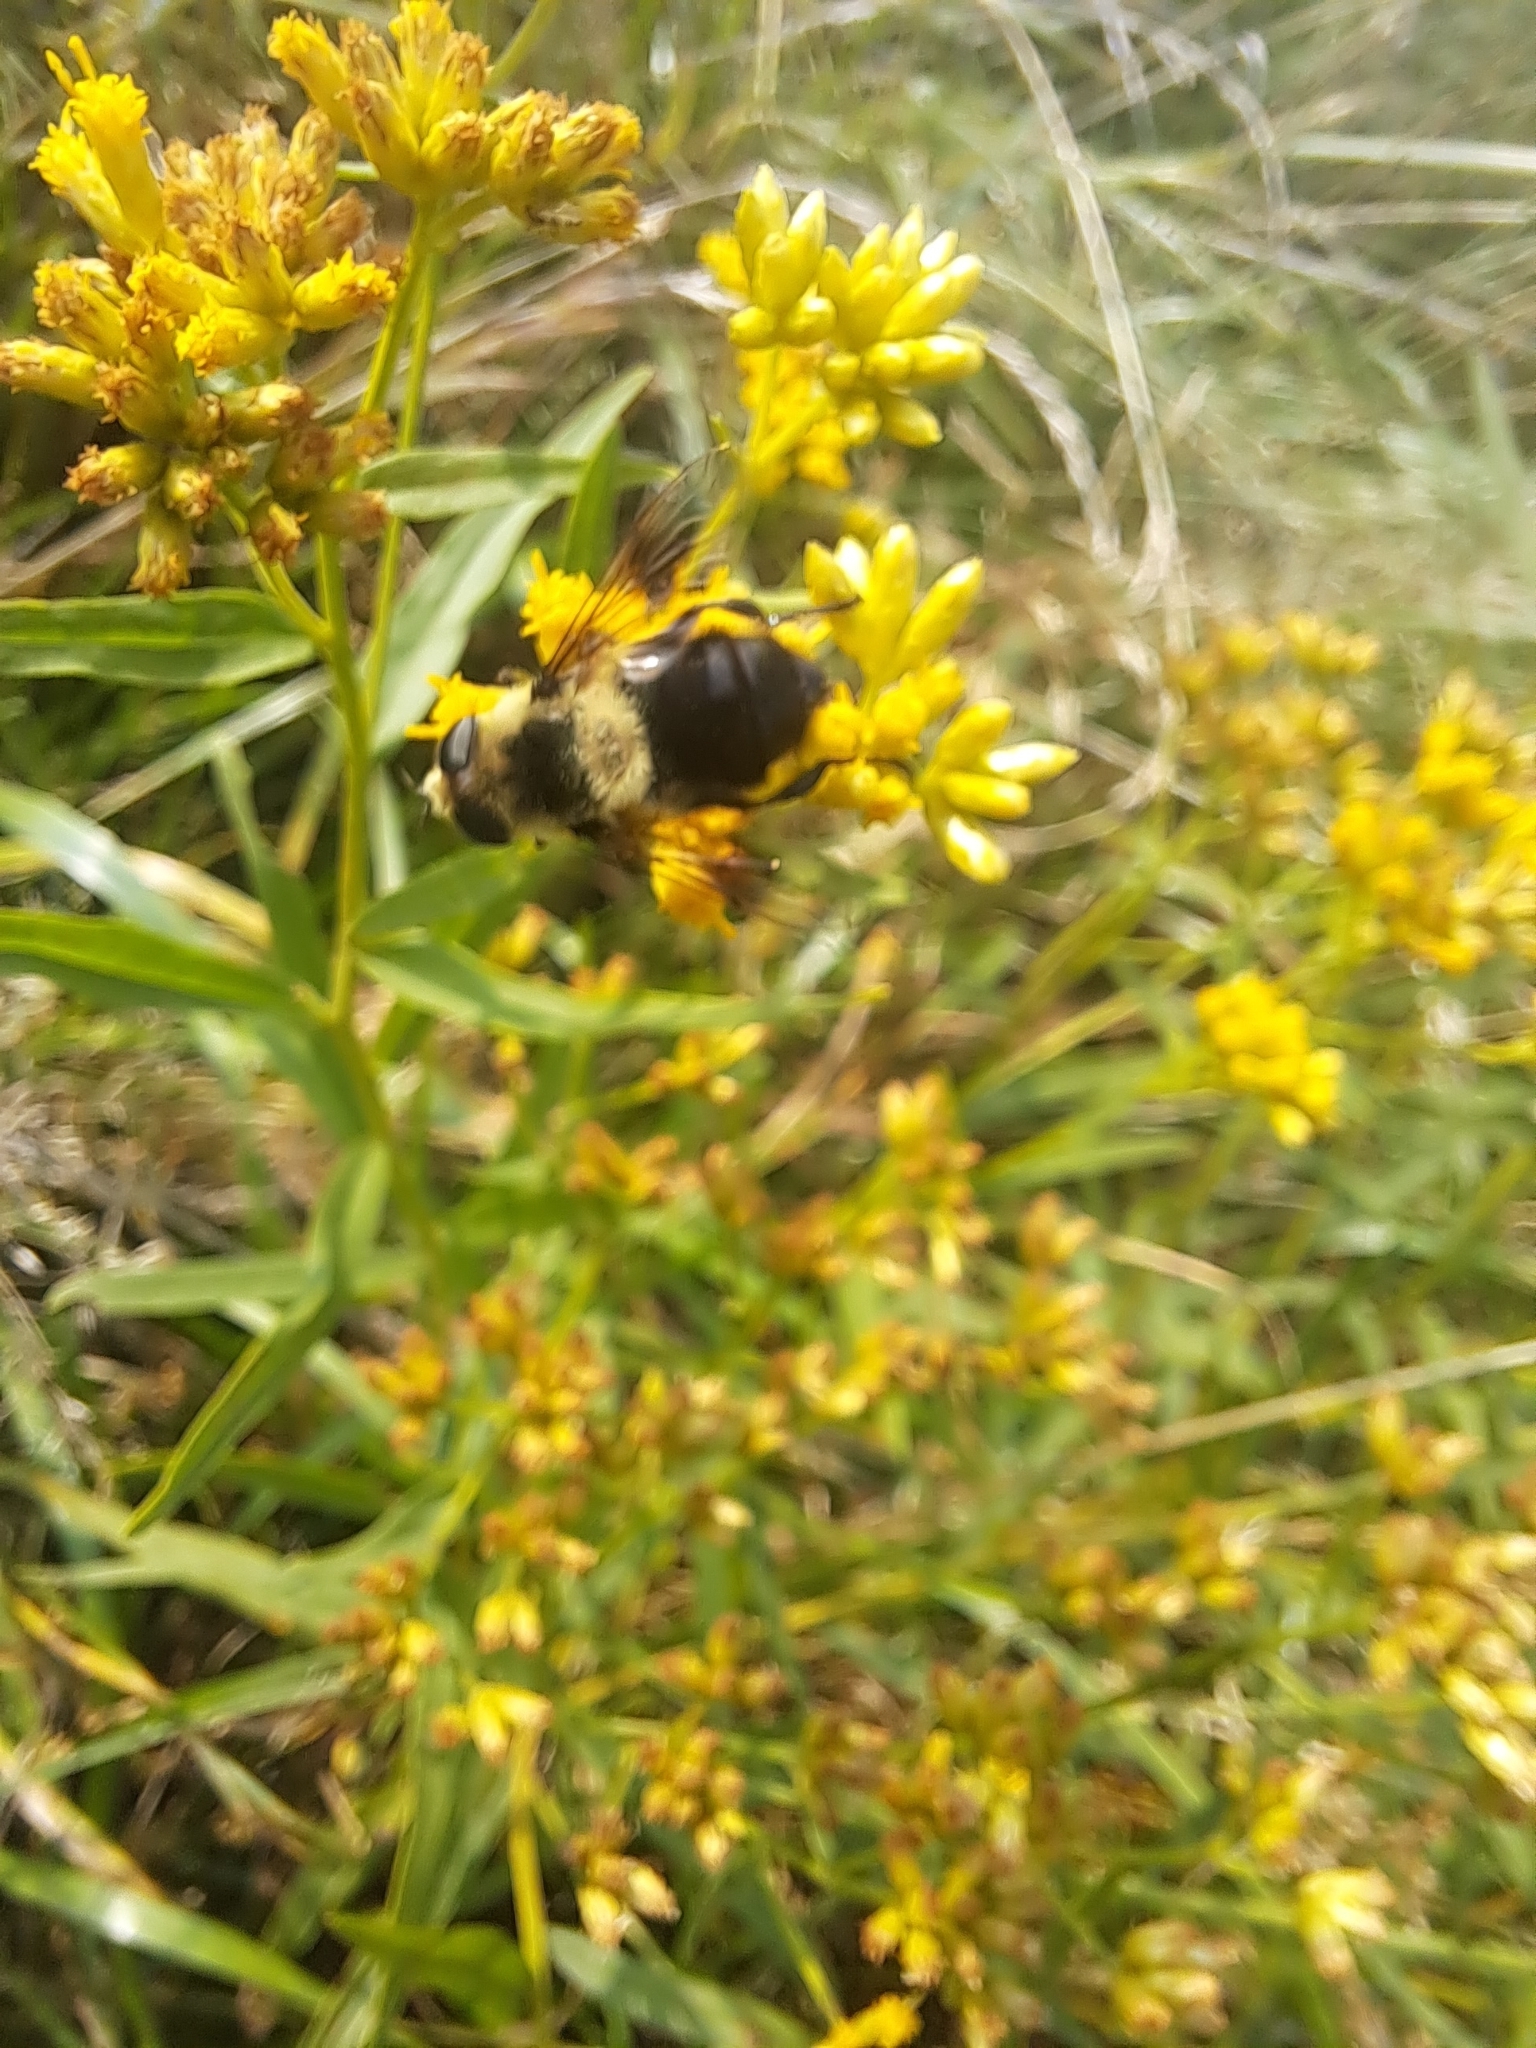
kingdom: Animalia
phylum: Arthropoda
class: Insecta
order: Diptera
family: Syrphidae
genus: Eristalis
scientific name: Eristalis anthophorina
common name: Orange-spotted drone fly
